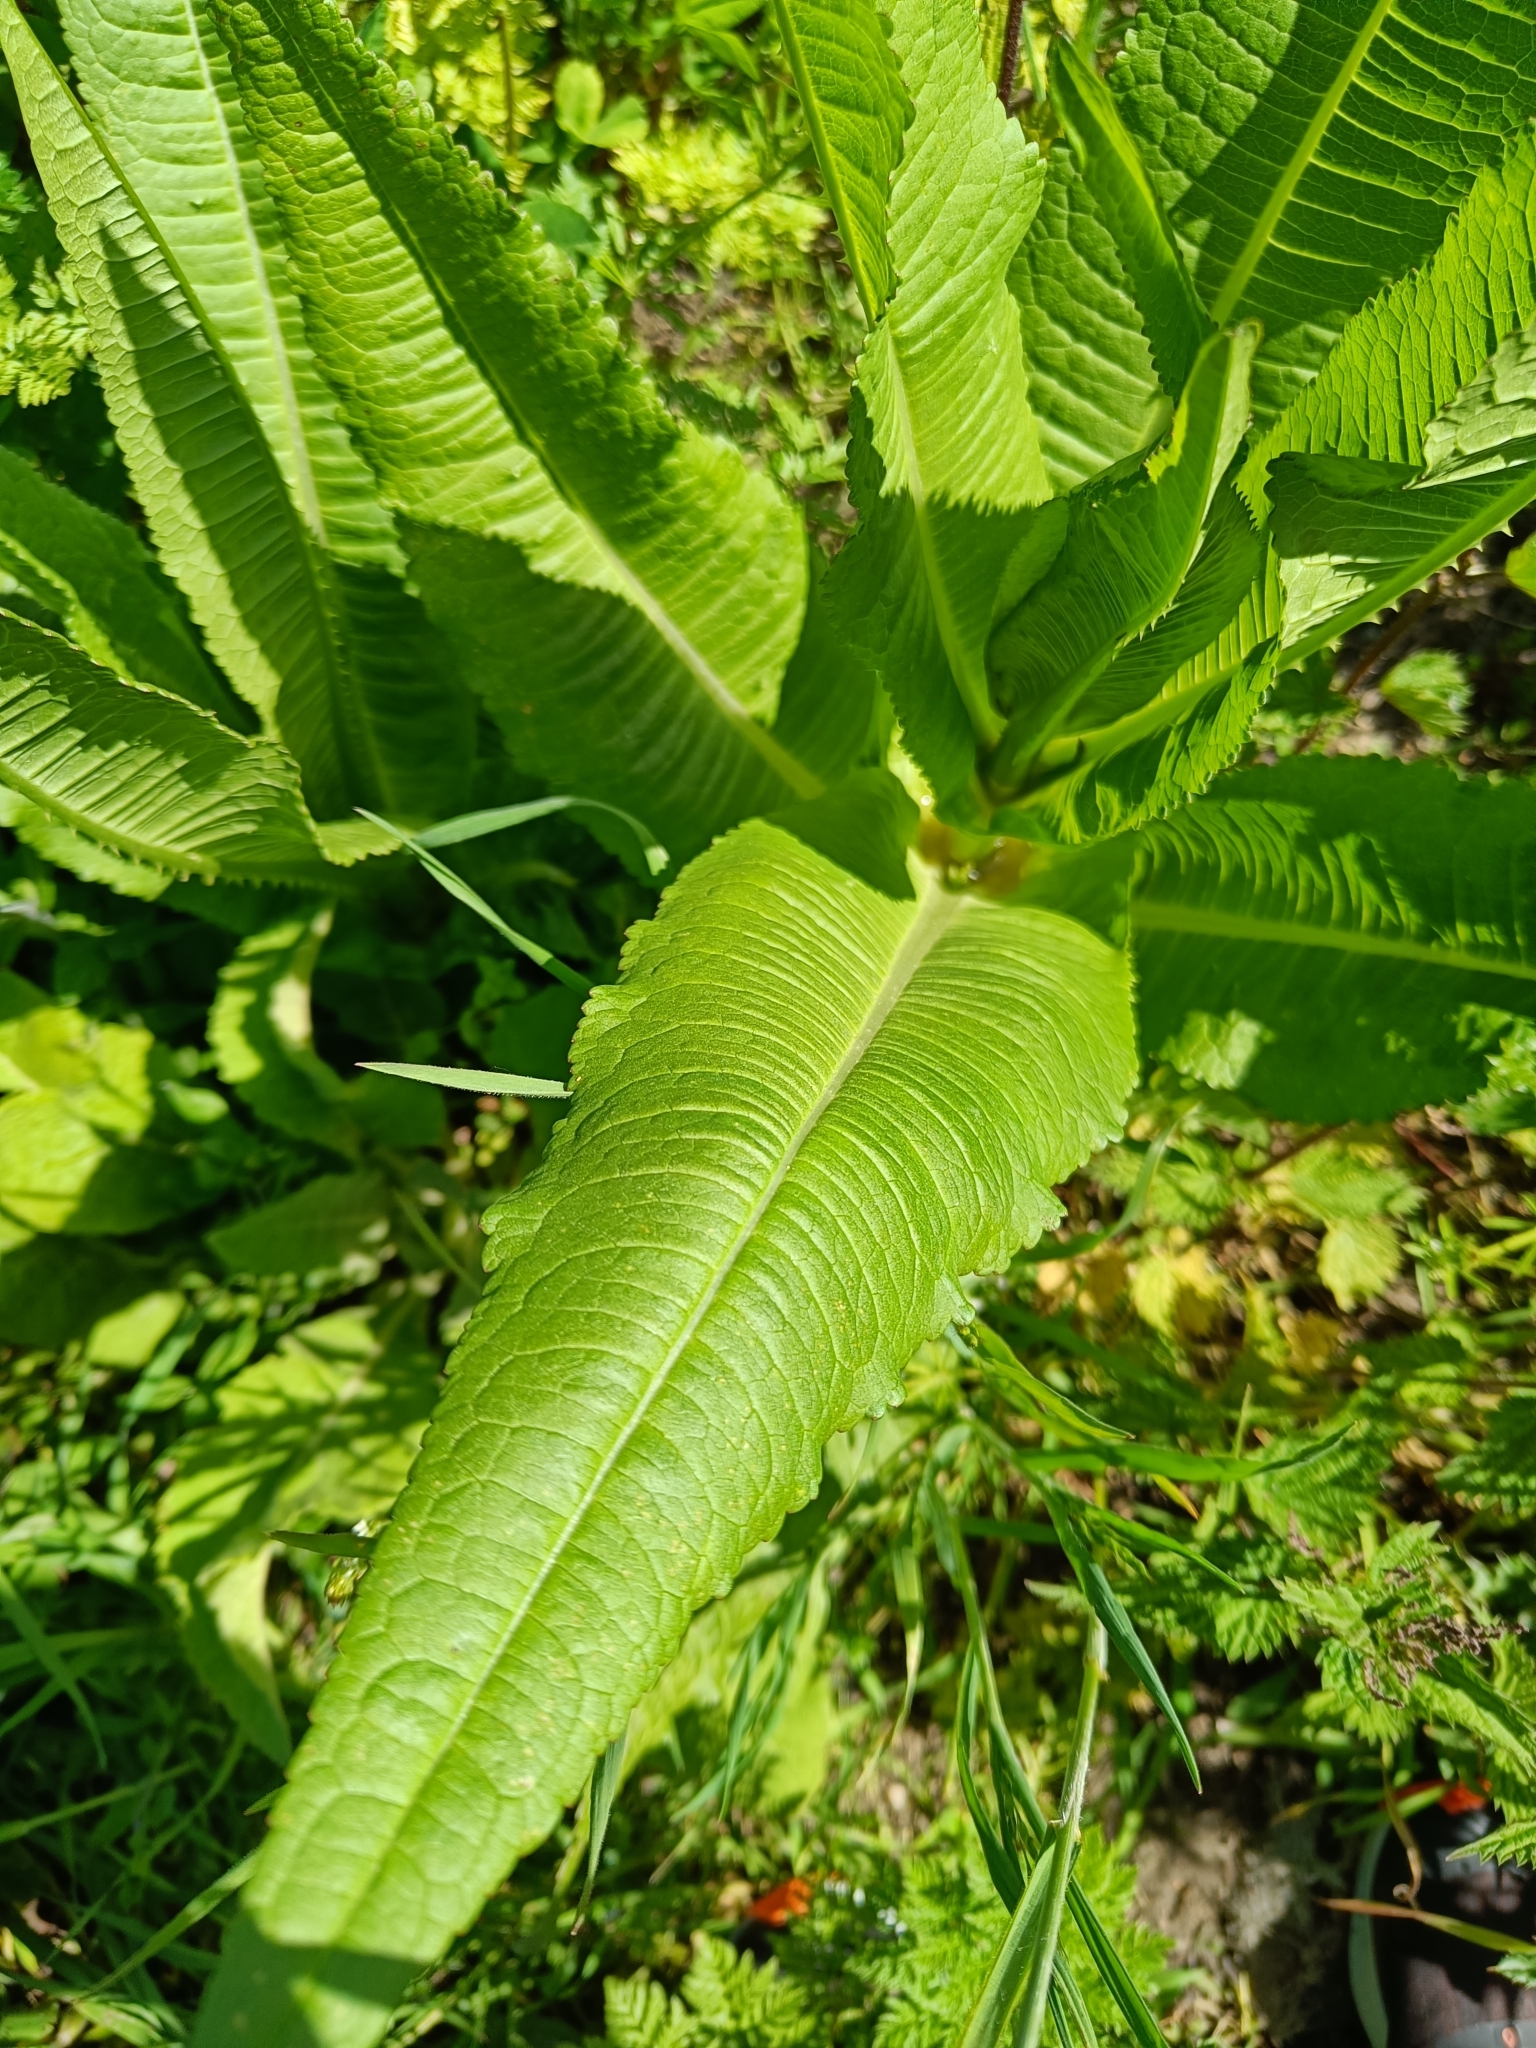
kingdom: Plantae
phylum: Tracheophyta
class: Magnoliopsida
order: Dipsacales
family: Caprifoliaceae
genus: Dipsacus
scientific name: Dipsacus fullonum
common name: Teasel
